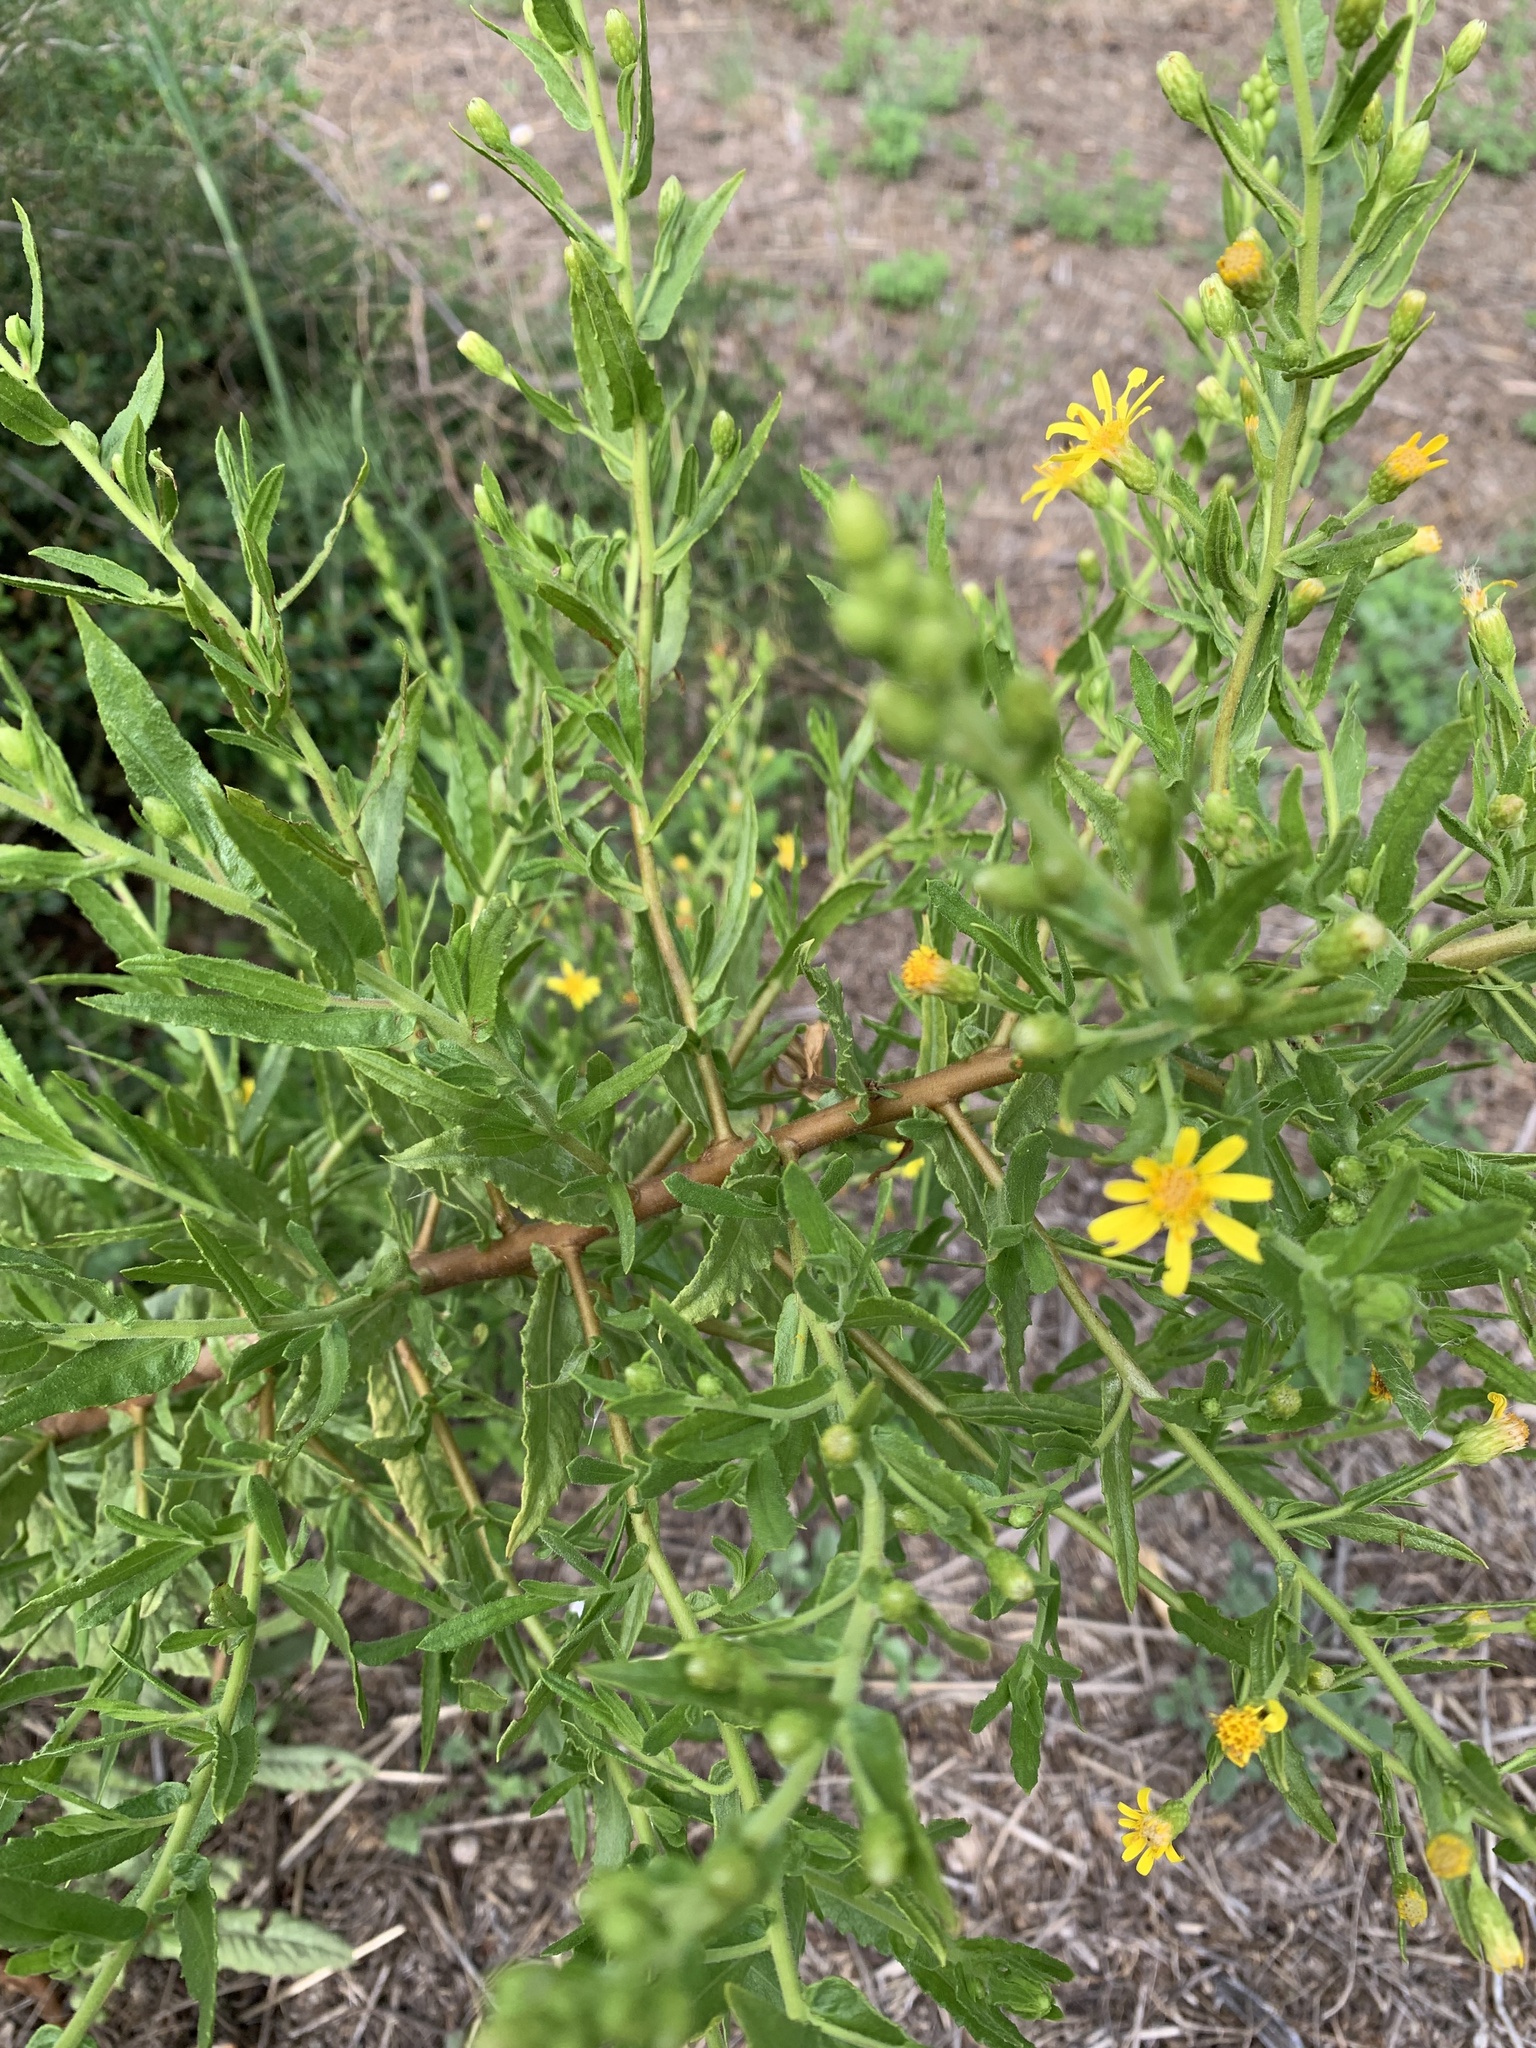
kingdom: Plantae
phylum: Tracheophyta
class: Magnoliopsida
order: Asterales
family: Asteraceae
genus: Dittrichia
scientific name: Dittrichia viscosa
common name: Woody fleabane
